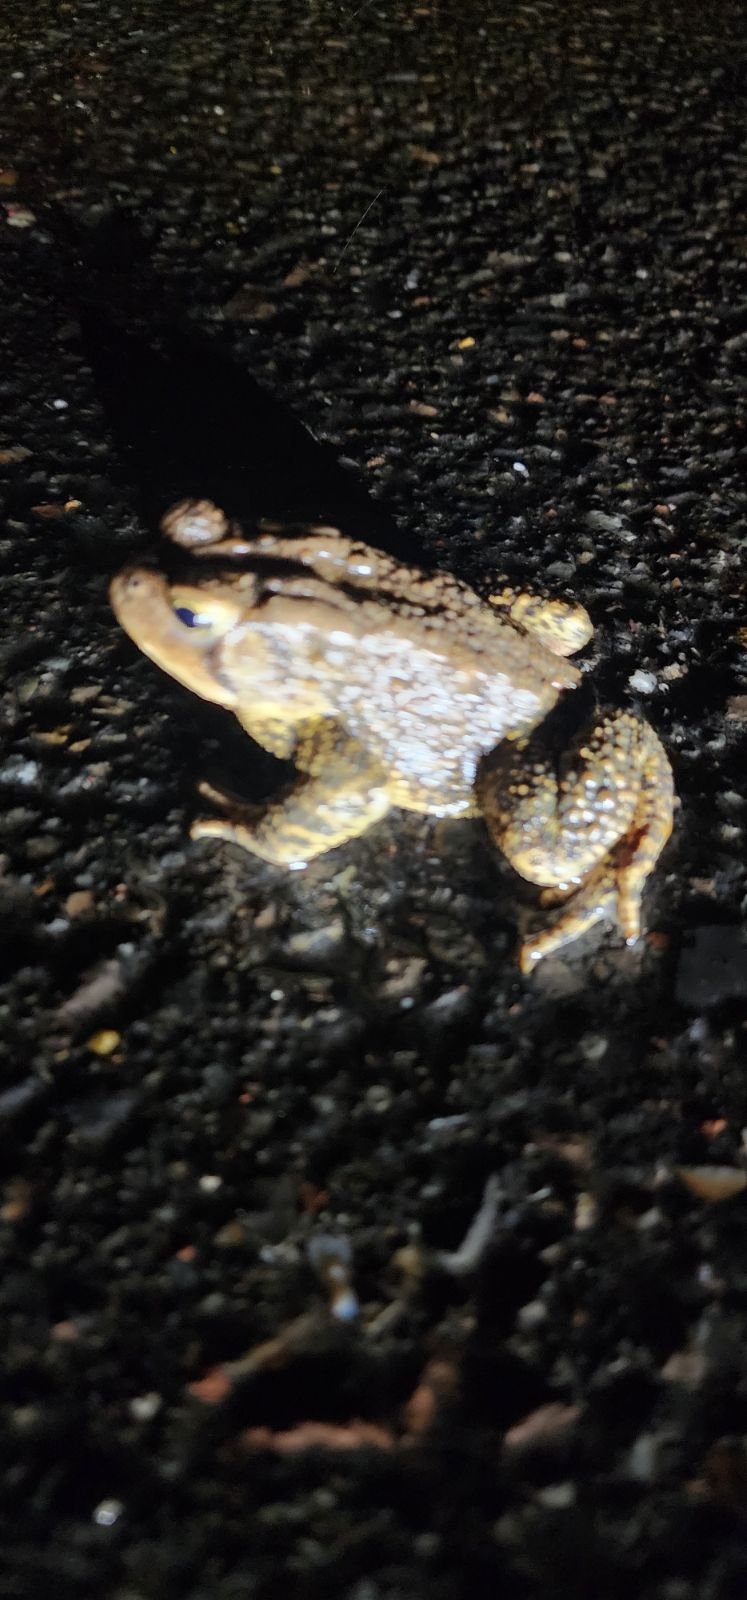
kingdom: Animalia
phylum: Chordata
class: Amphibia
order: Anura
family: Bufonidae
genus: Anaxyrus
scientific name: Anaxyrus americanus
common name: American toad
